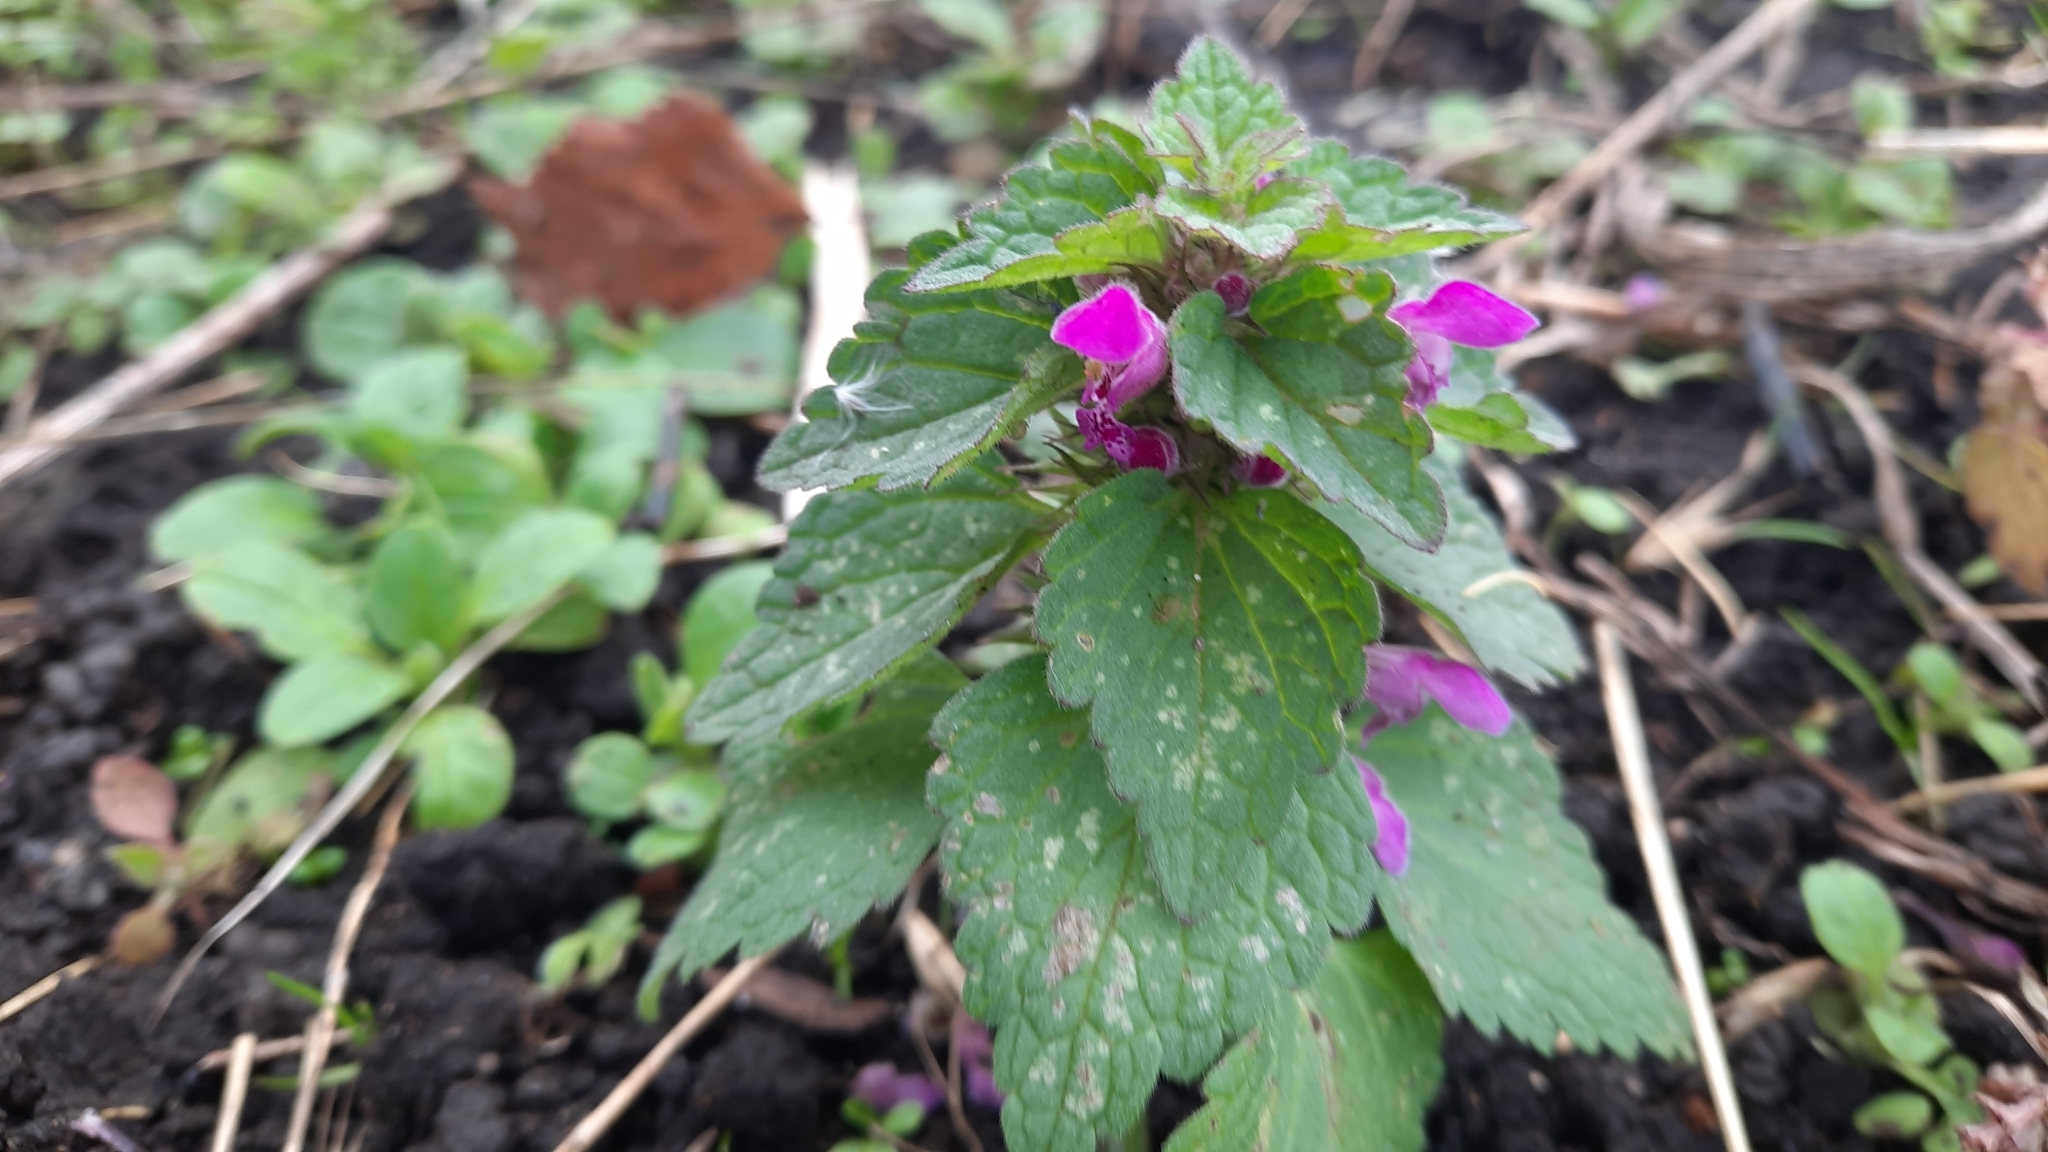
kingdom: Plantae
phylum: Tracheophyta
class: Magnoliopsida
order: Lamiales
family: Lamiaceae
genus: Lamium
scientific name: Lamium purpureum
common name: Red dead-nettle
